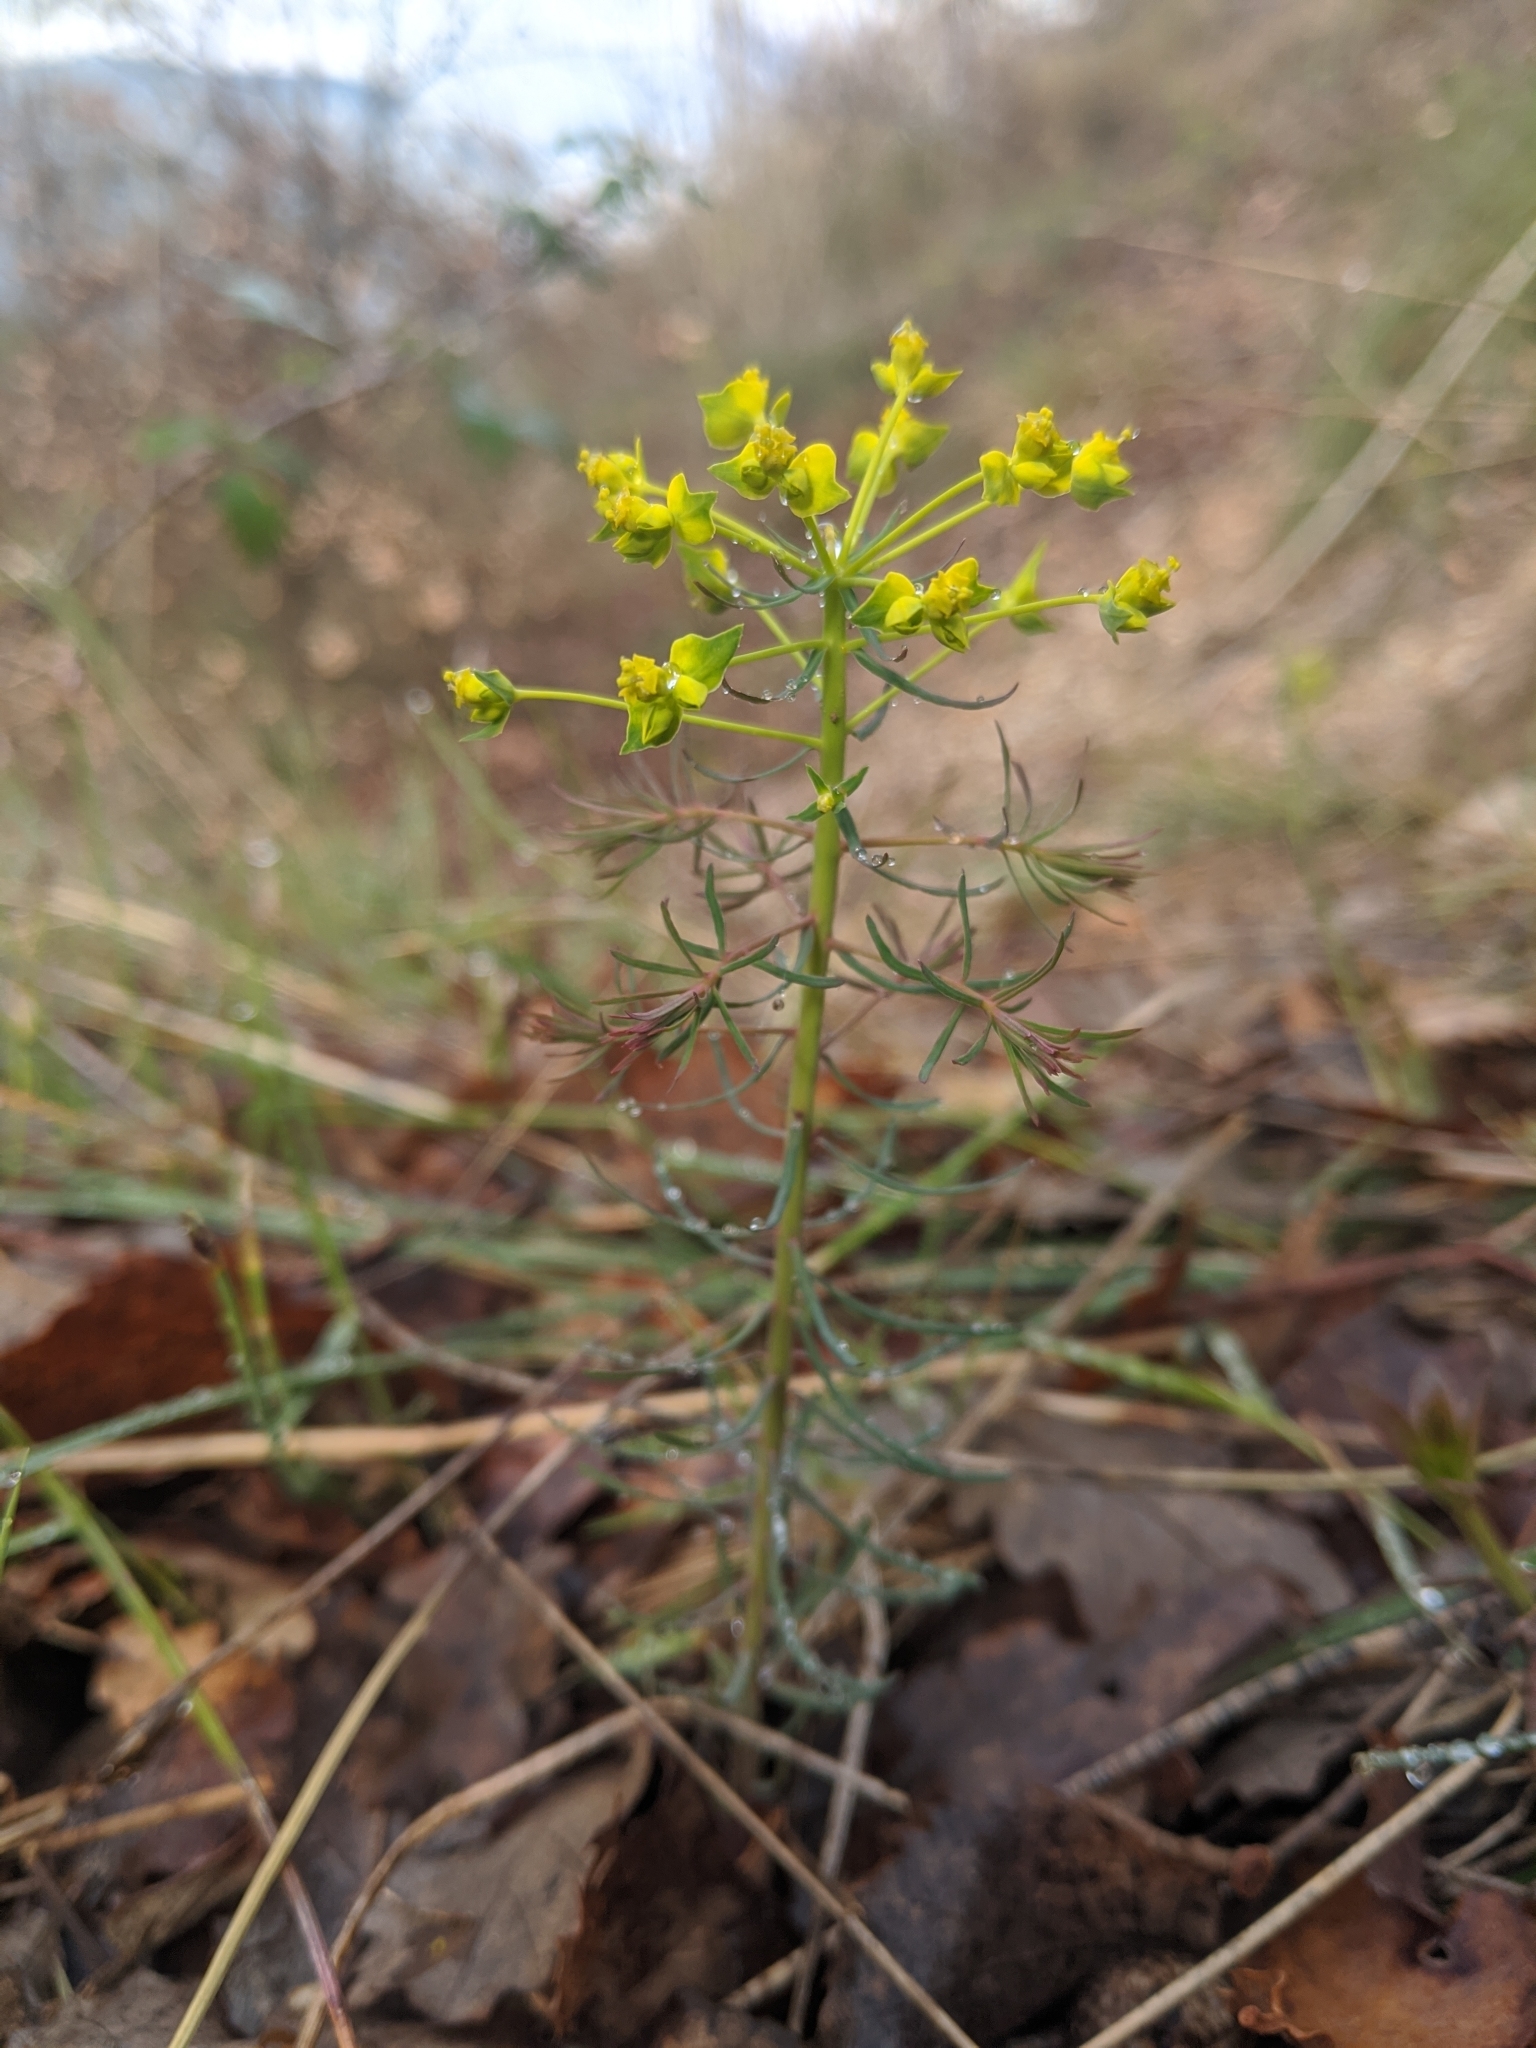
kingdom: Plantae
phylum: Tracheophyta
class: Magnoliopsida
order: Malpighiales
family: Euphorbiaceae
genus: Euphorbia
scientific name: Euphorbia cyparissias
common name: Cypress spurge
